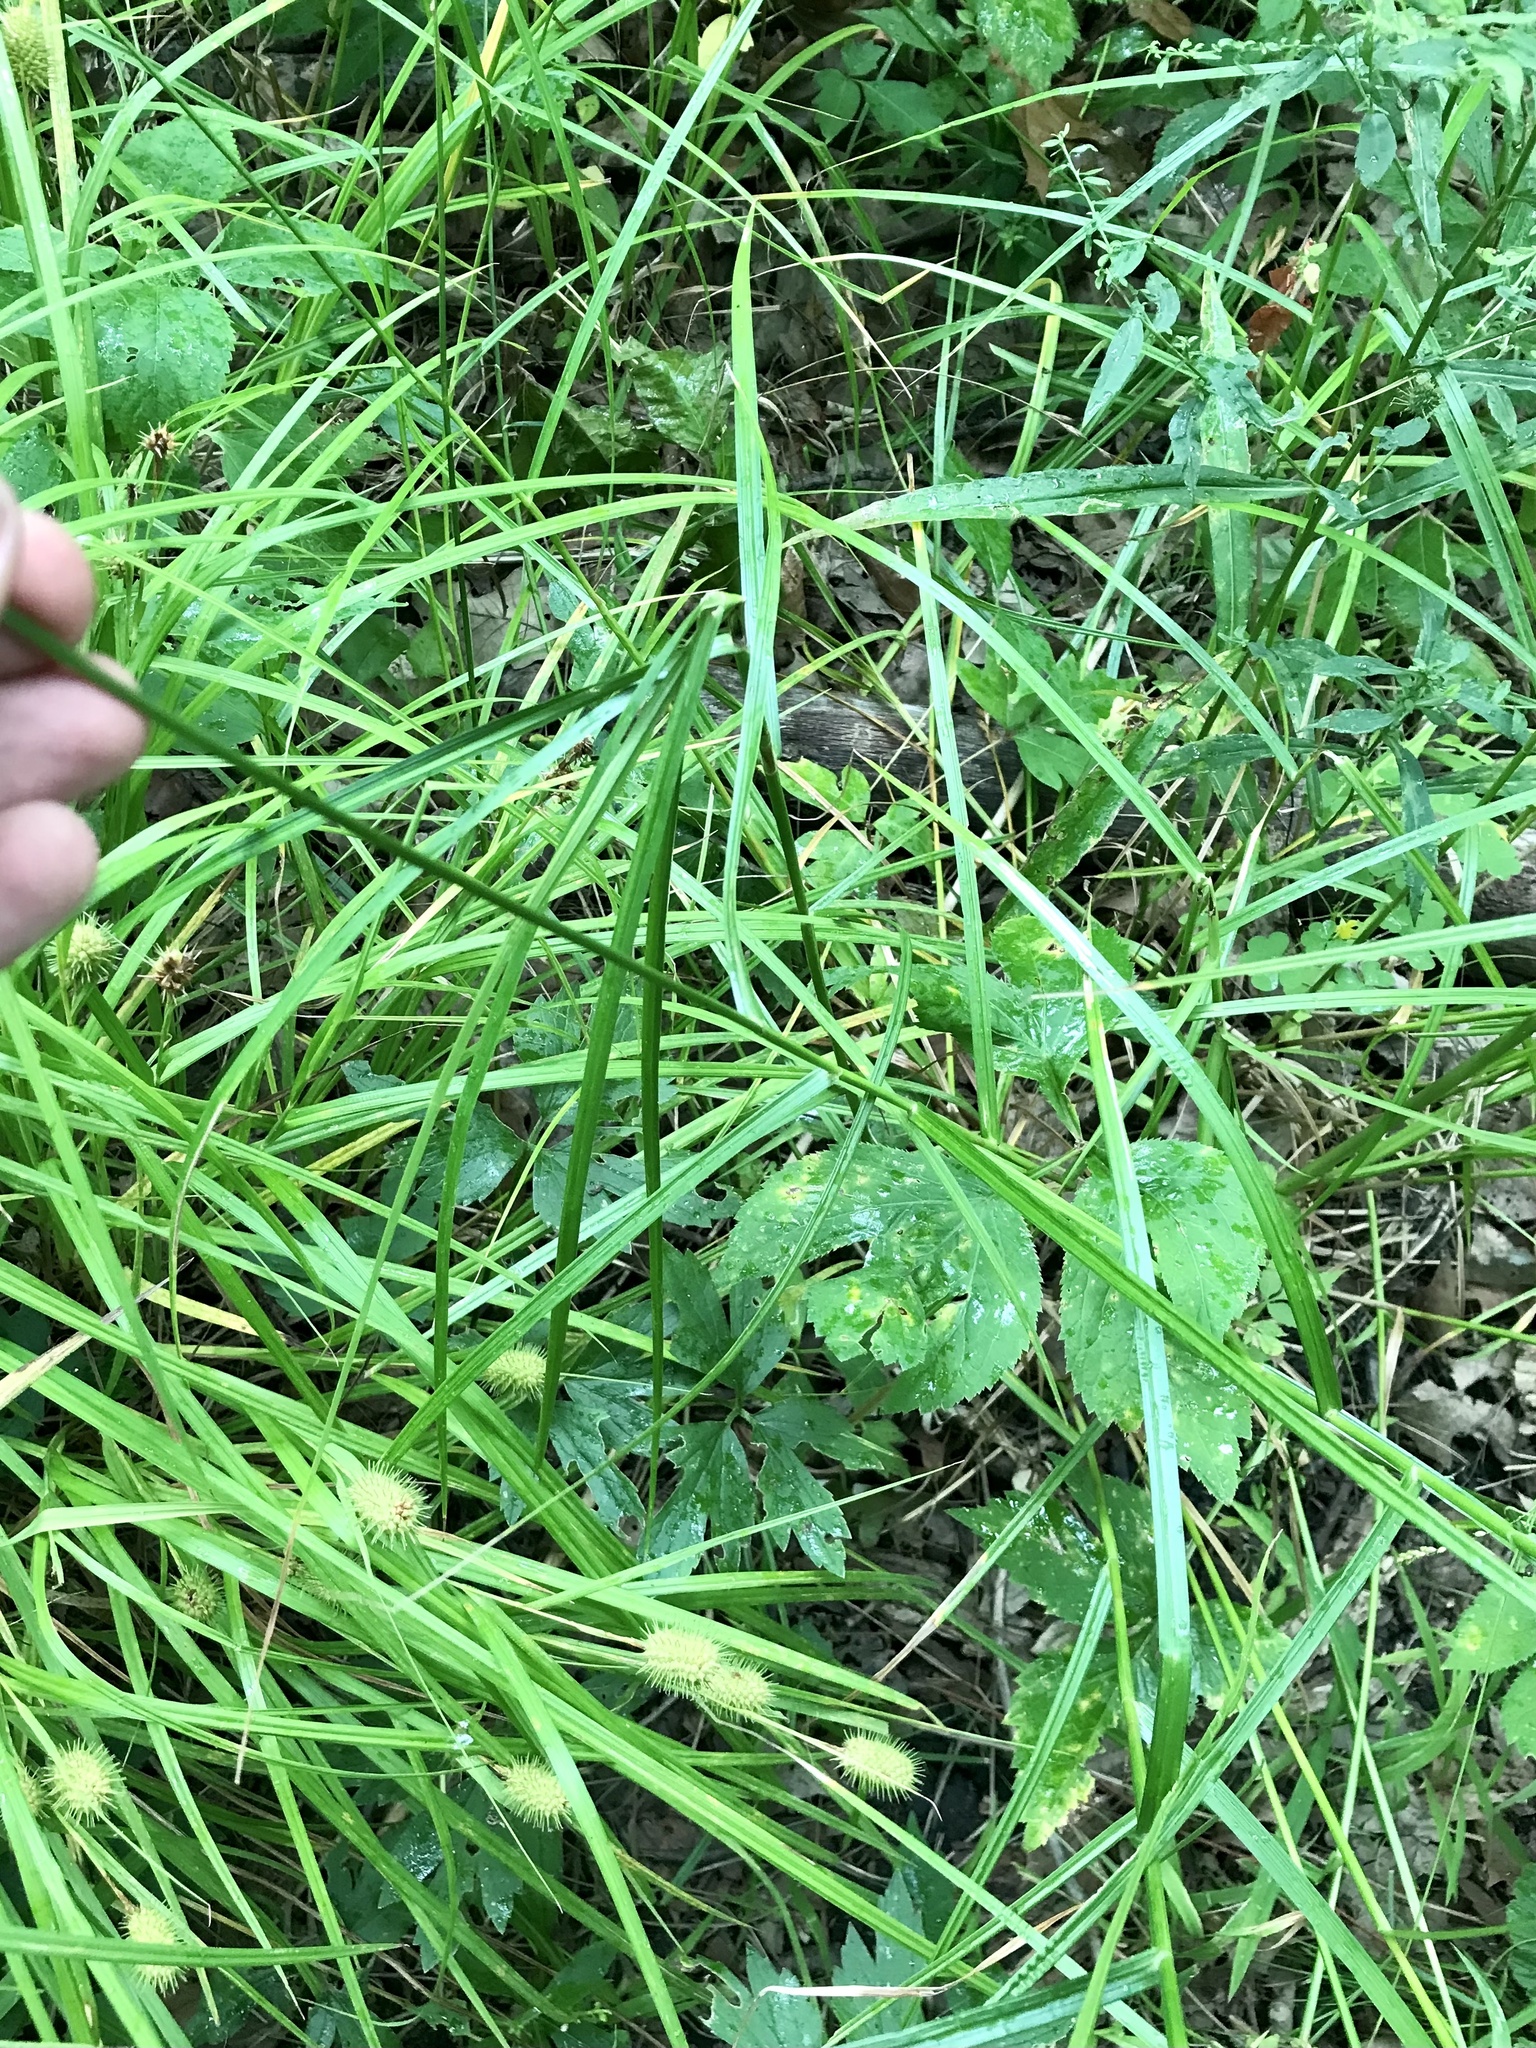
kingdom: Plantae
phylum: Tracheophyta
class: Liliopsida
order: Poales
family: Cyperaceae
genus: Carex
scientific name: Carex muskingumensis
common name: Muskingum sedge
